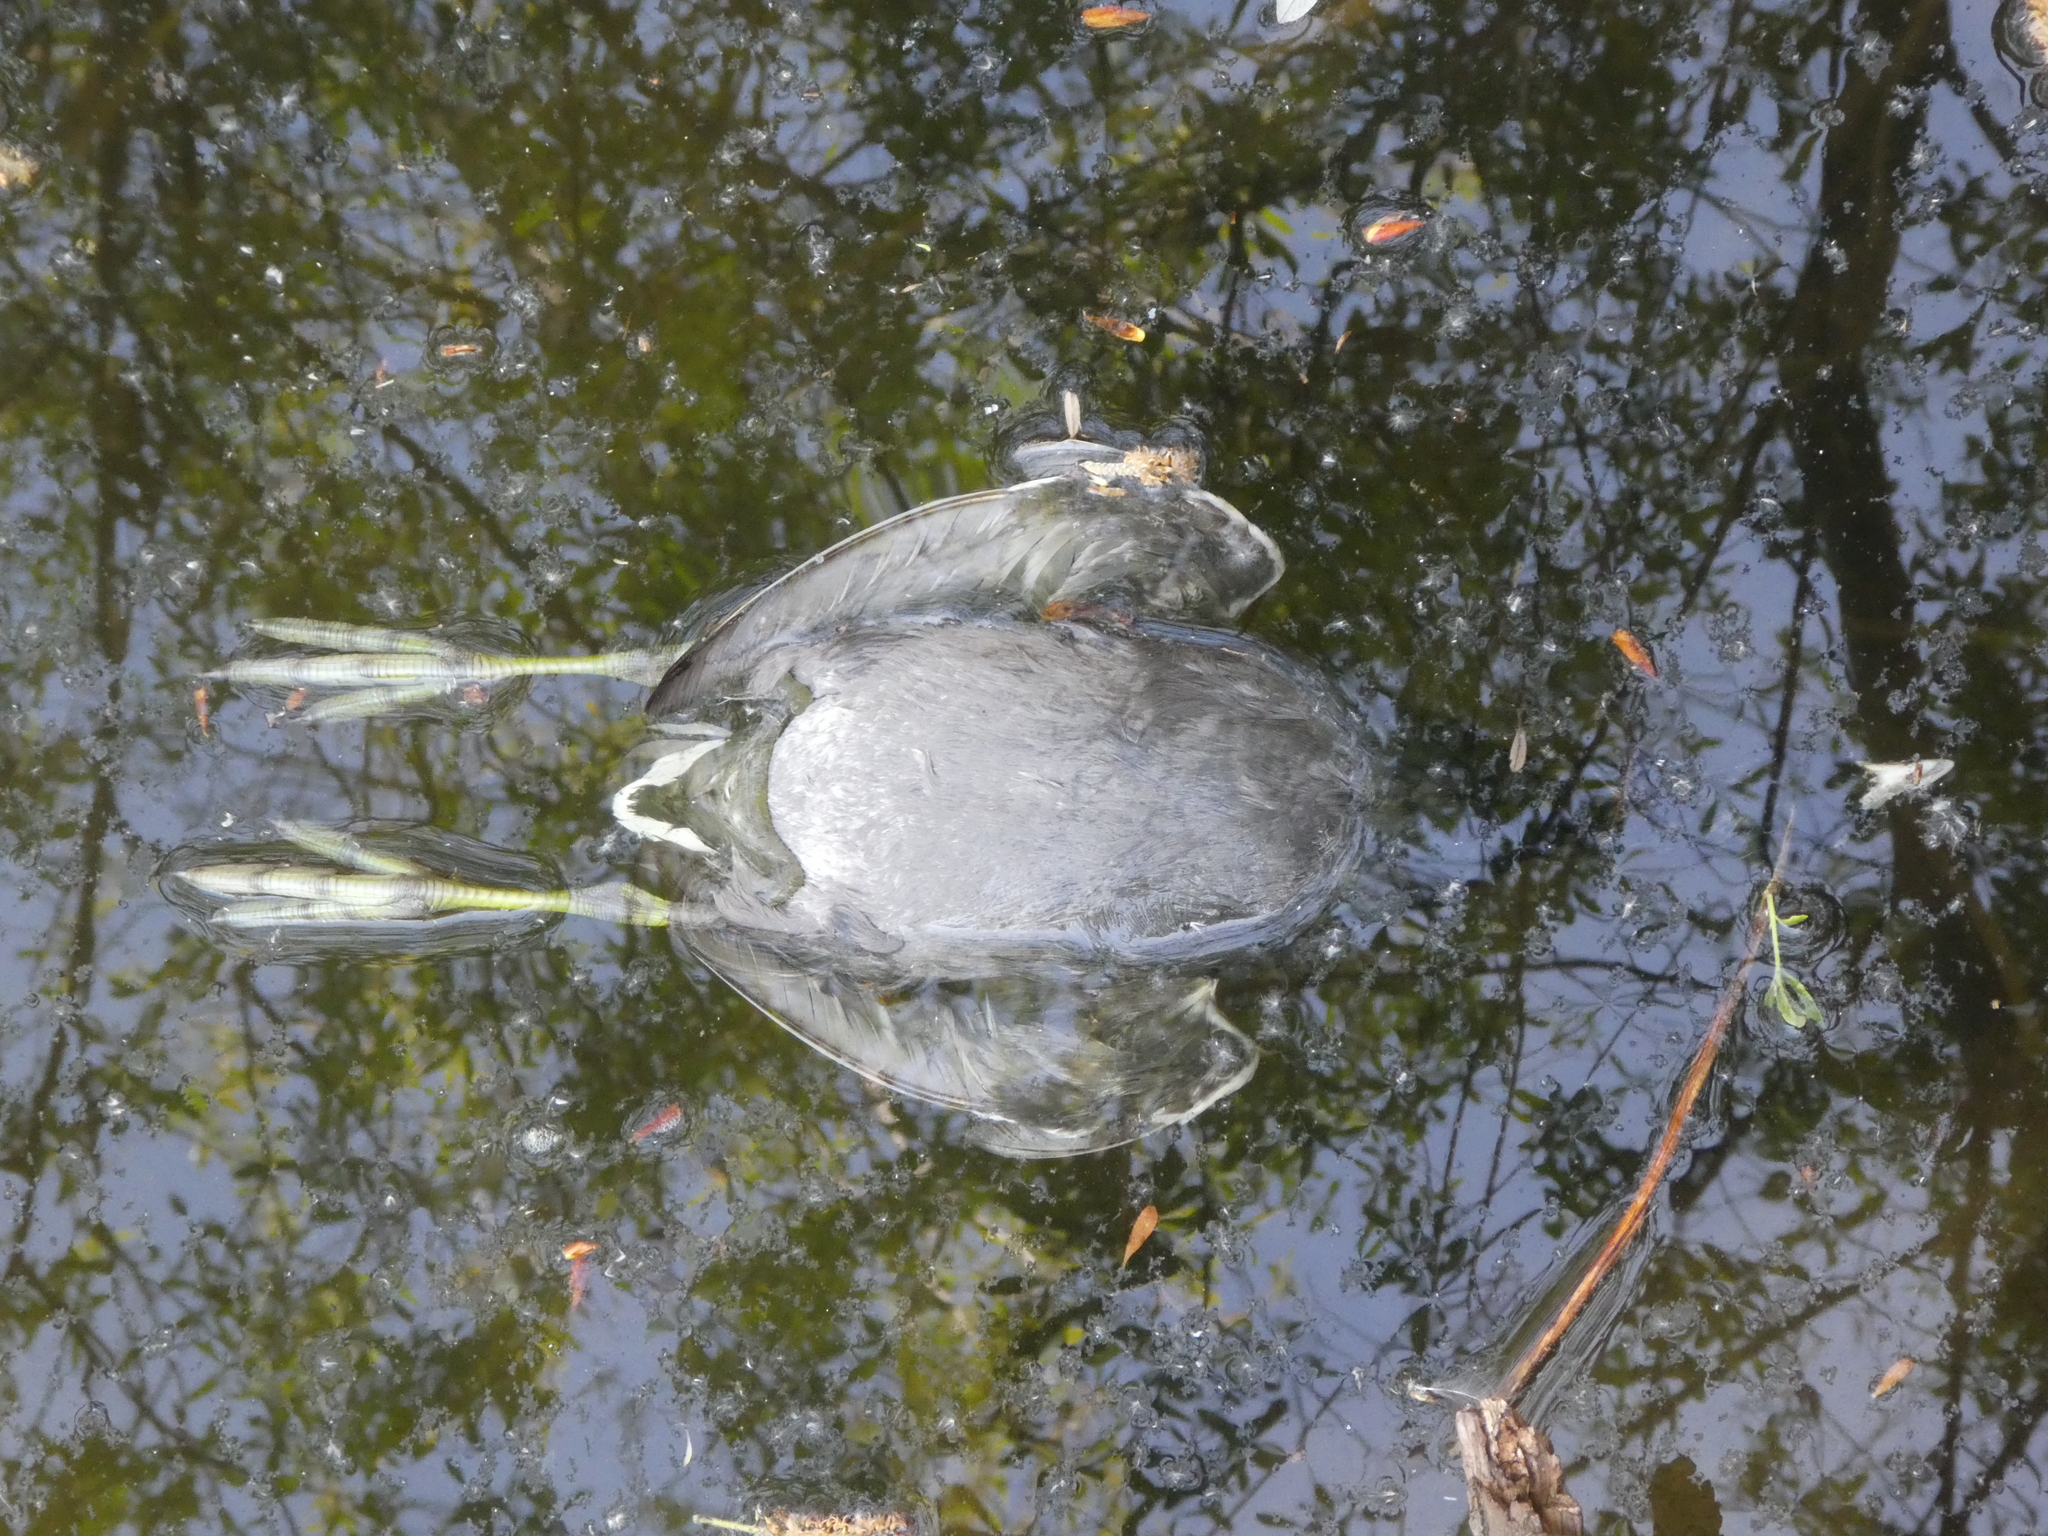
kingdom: Animalia
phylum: Chordata
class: Aves
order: Gruiformes
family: Rallidae
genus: Fulica
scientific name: Fulica americana
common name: American coot
